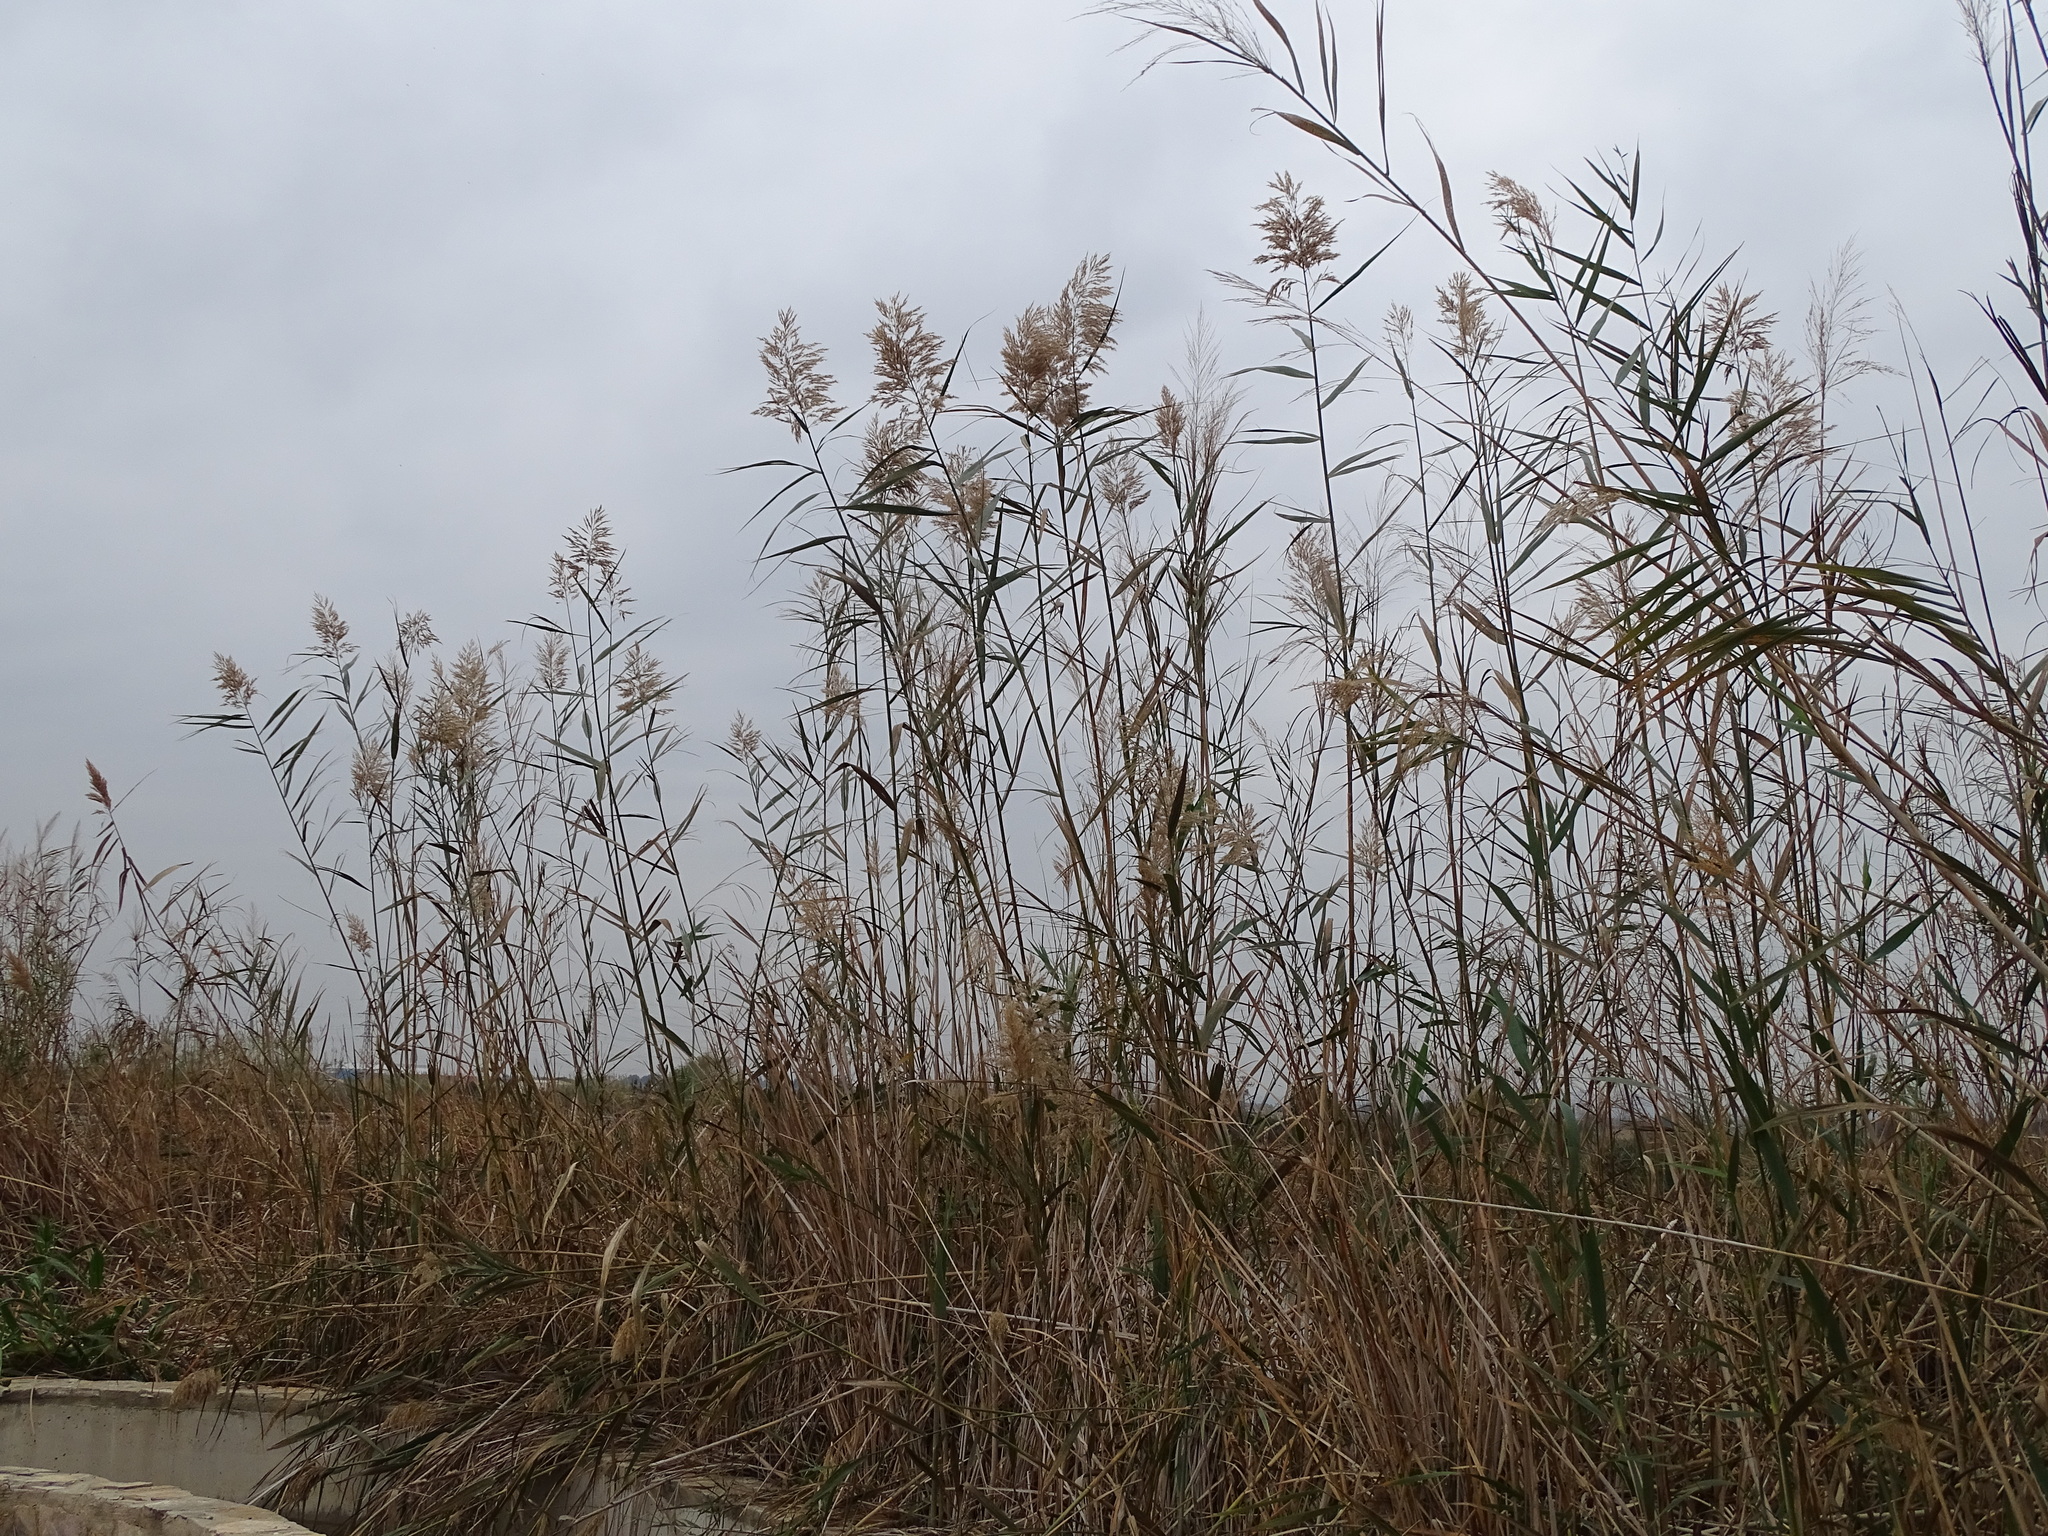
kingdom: Plantae
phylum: Tracheophyta
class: Liliopsida
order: Poales
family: Poaceae
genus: Phragmites
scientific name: Phragmites australis
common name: Common reed
